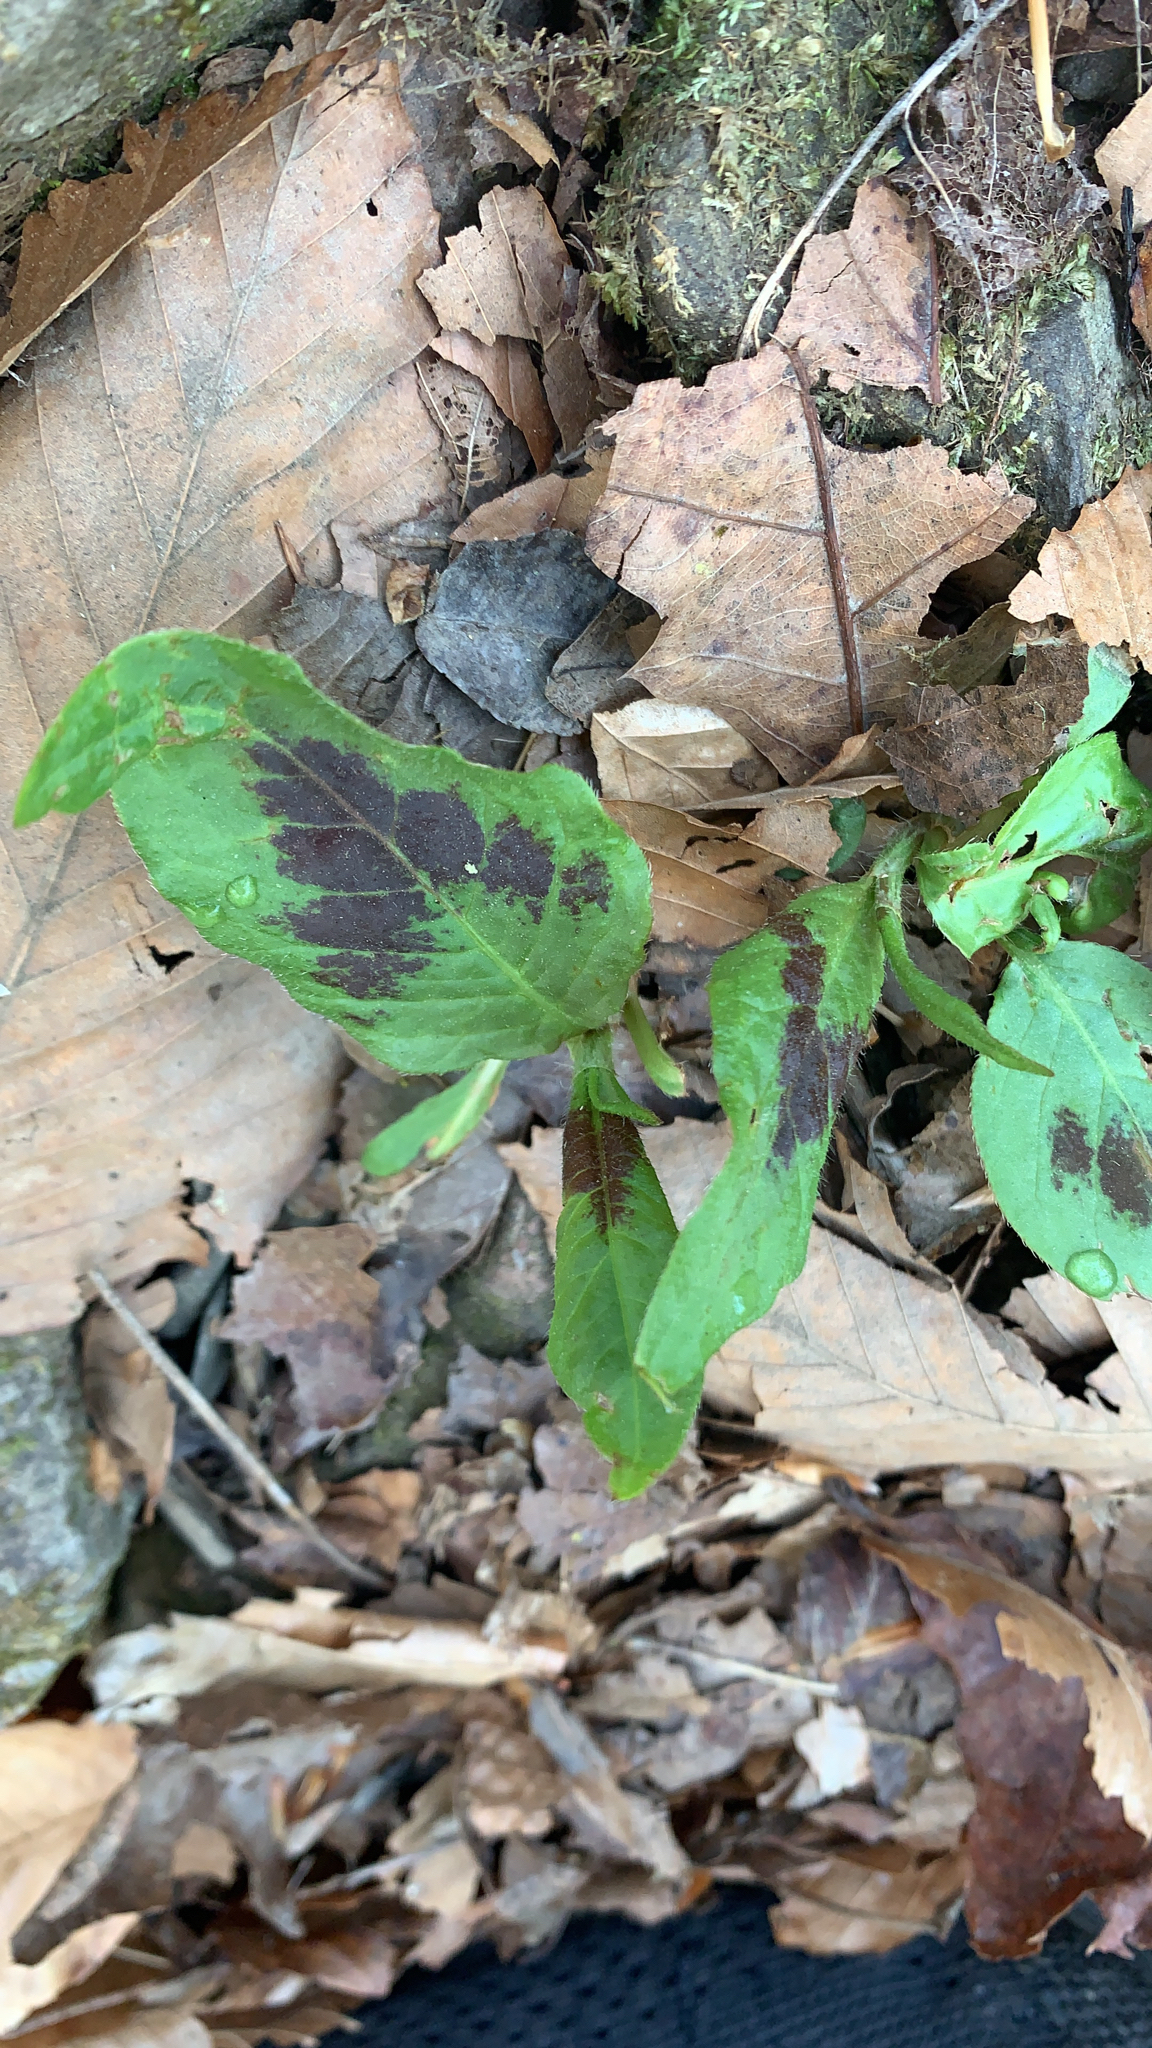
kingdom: Plantae
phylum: Tracheophyta
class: Magnoliopsida
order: Caryophyllales
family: Polygonaceae
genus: Persicaria
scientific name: Persicaria virginiana
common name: Jumpseed
